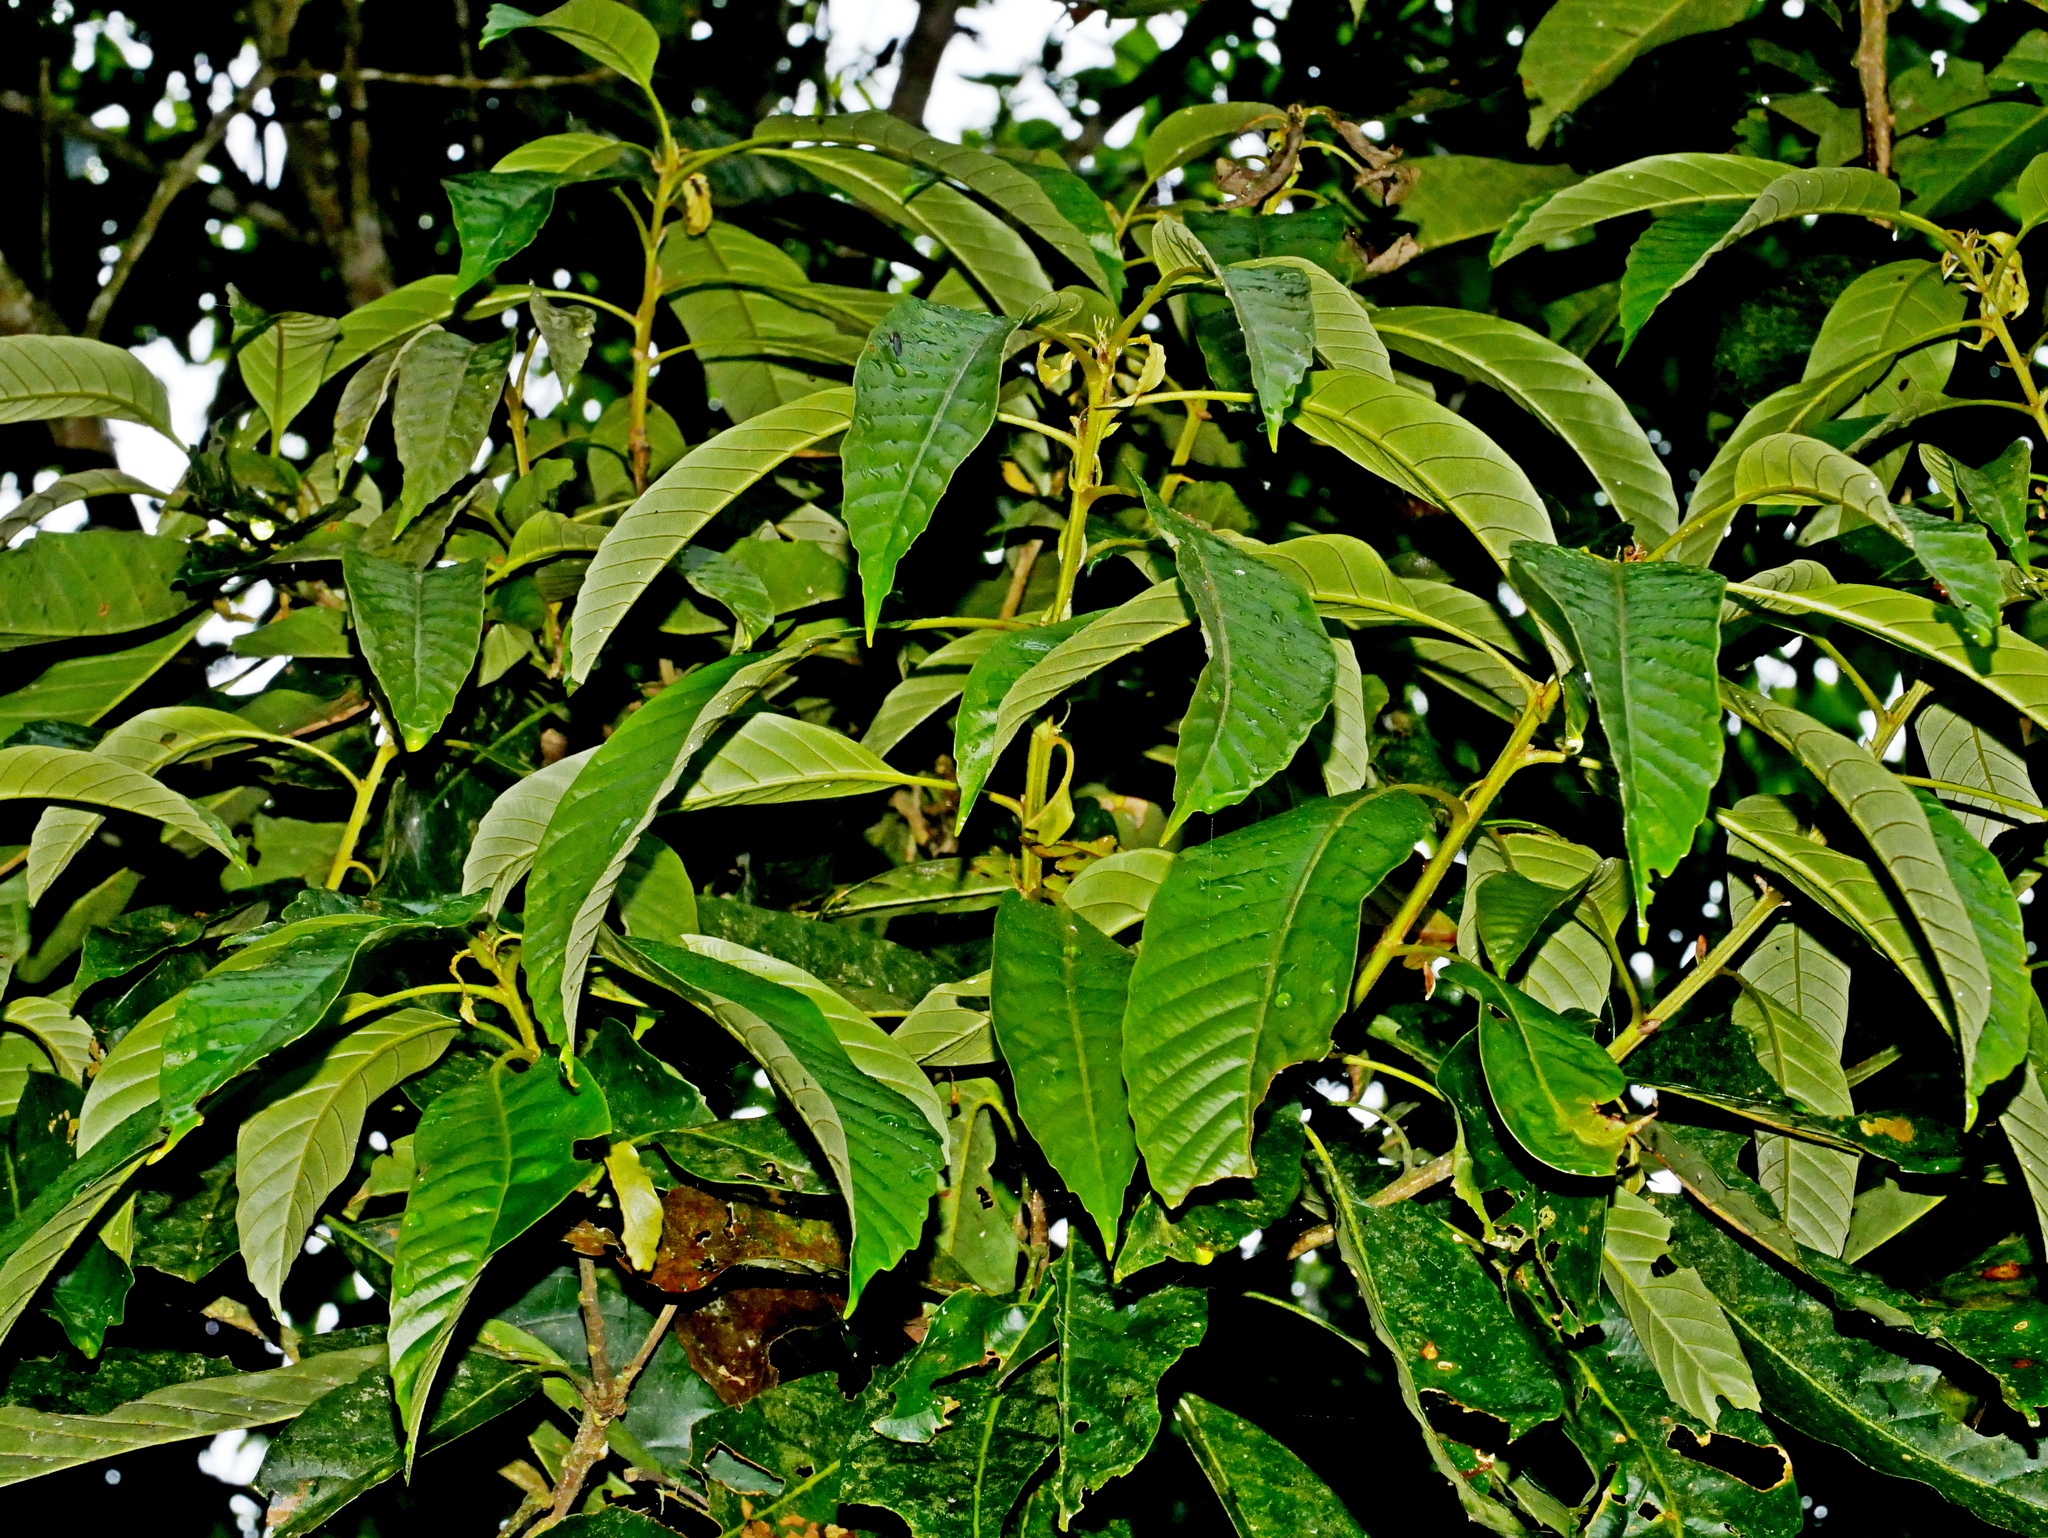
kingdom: Plantae
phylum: Tracheophyta
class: Magnoliopsida
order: Fagales
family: Fagaceae
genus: Lithocarpus
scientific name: Lithocarpus lepidocarpus
